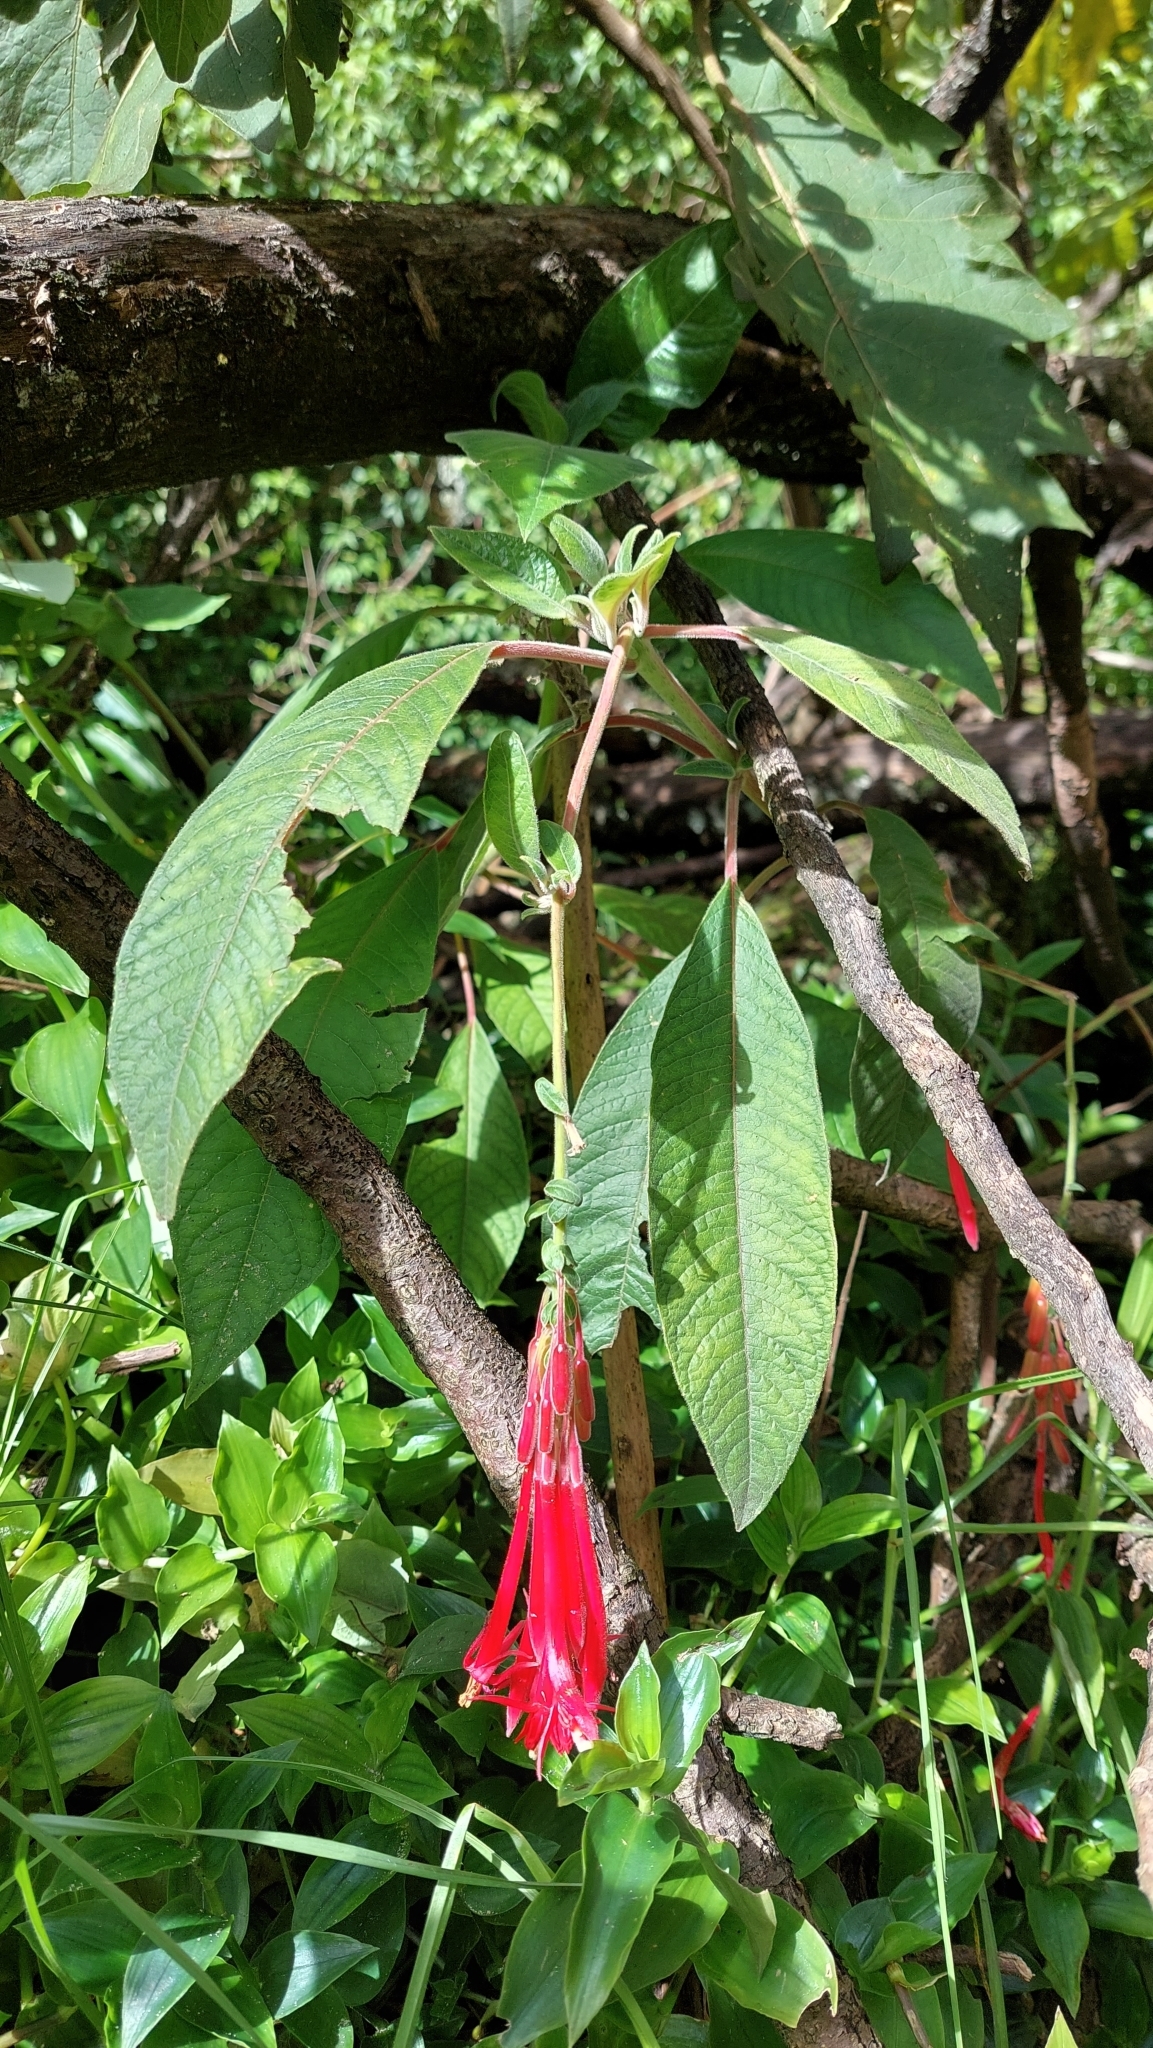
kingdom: Plantae
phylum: Tracheophyta
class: Magnoliopsida
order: Myrtales
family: Onagraceae
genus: Fuchsia
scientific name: Fuchsia boliviana
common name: Bolivian fuchsia
